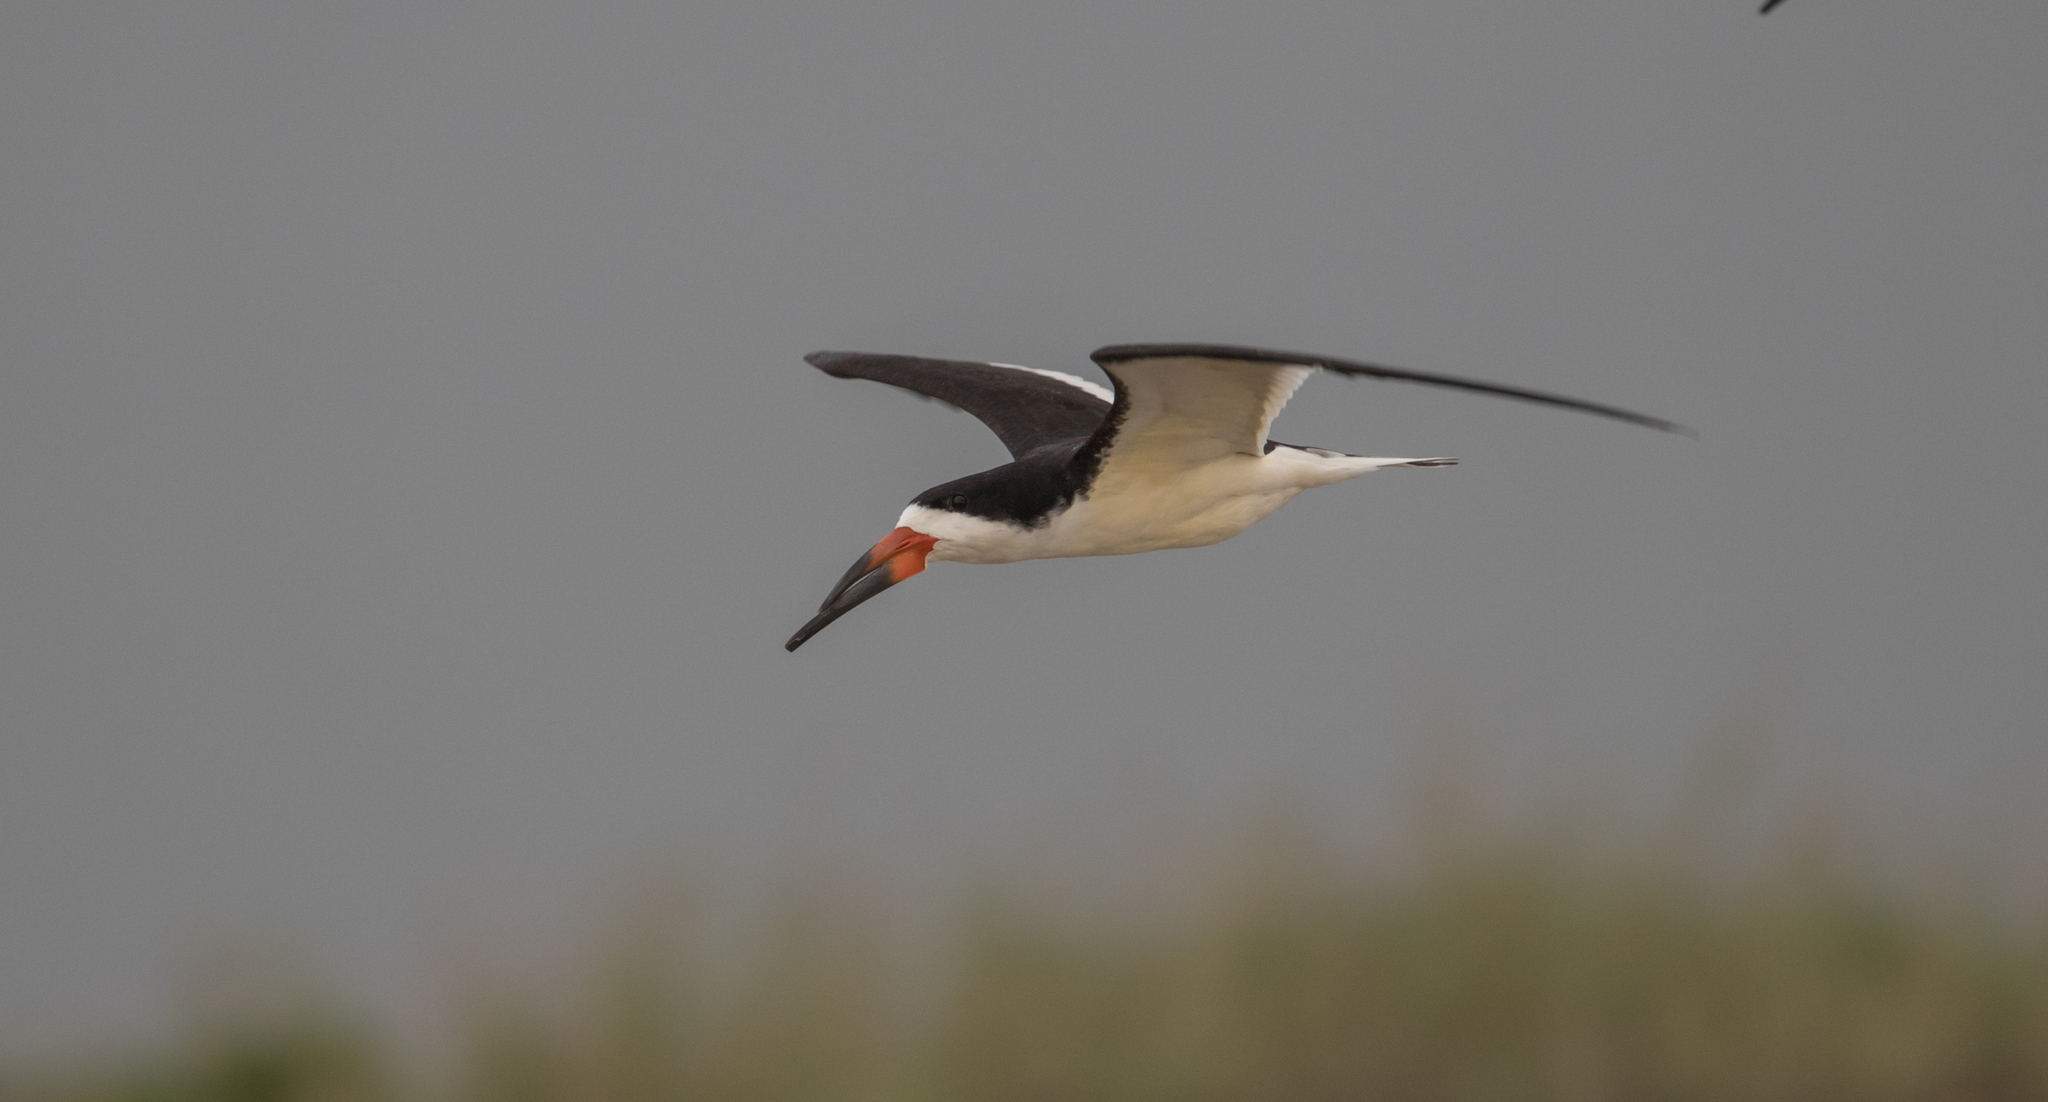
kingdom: Animalia
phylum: Chordata
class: Aves
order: Charadriiformes
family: Laridae
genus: Rynchops
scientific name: Rynchops niger
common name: Black skimmer
